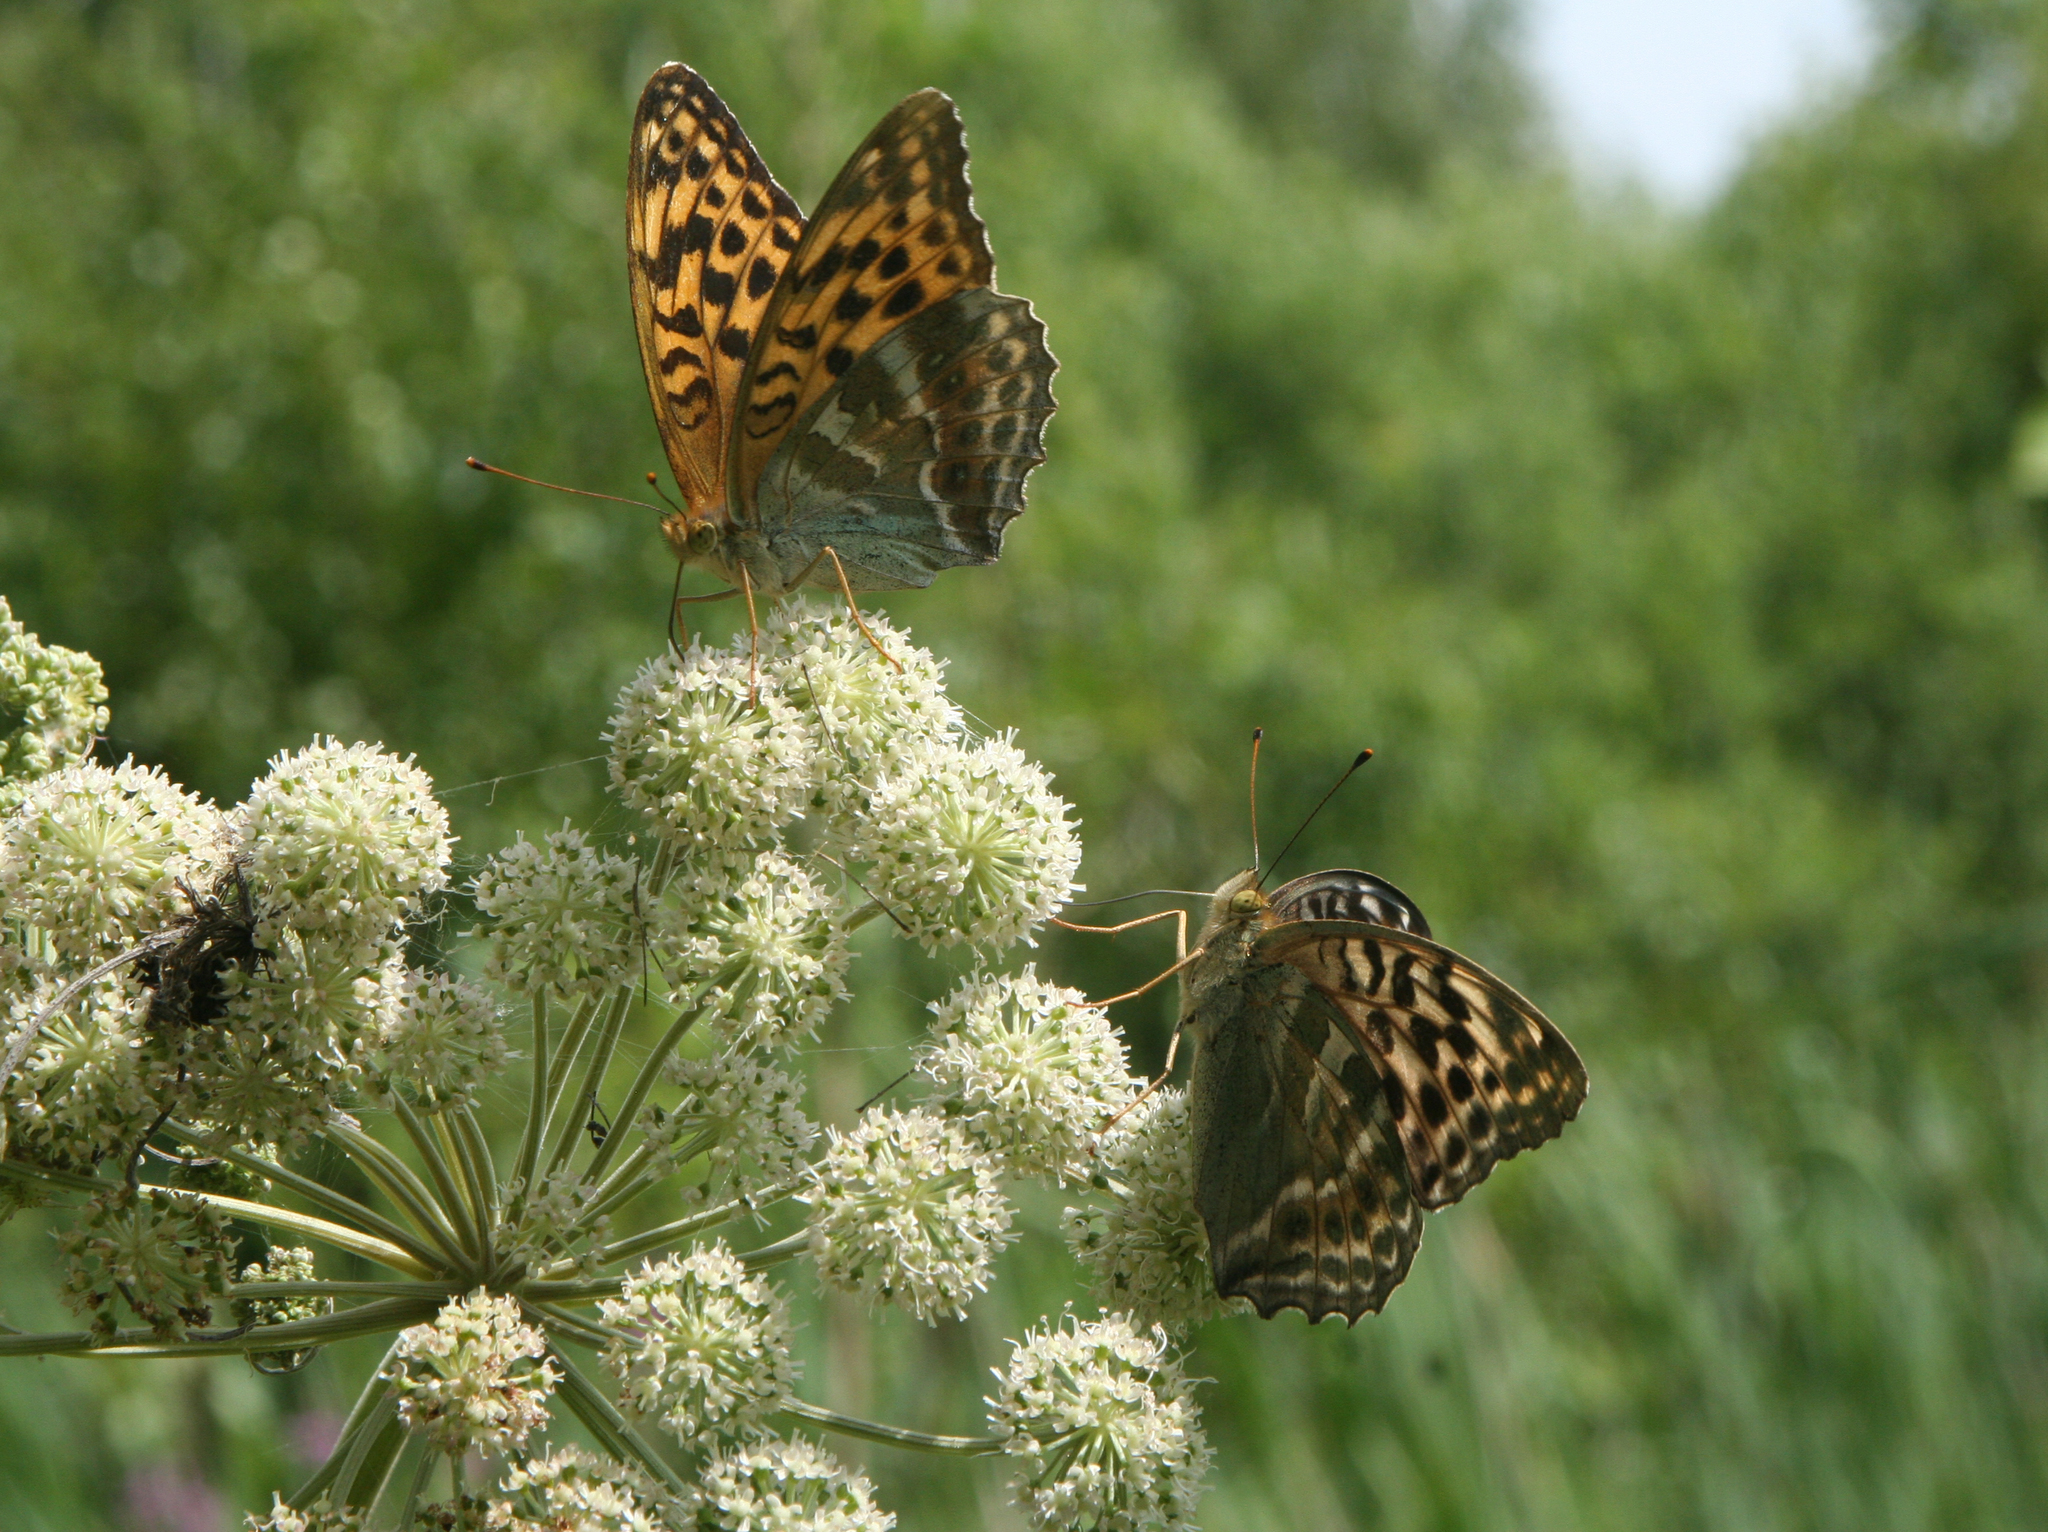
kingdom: Plantae
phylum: Tracheophyta
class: Magnoliopsida
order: Apiales
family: Apiaceae
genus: Angelica
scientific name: Angelica sylvestris
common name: Wild angelica
